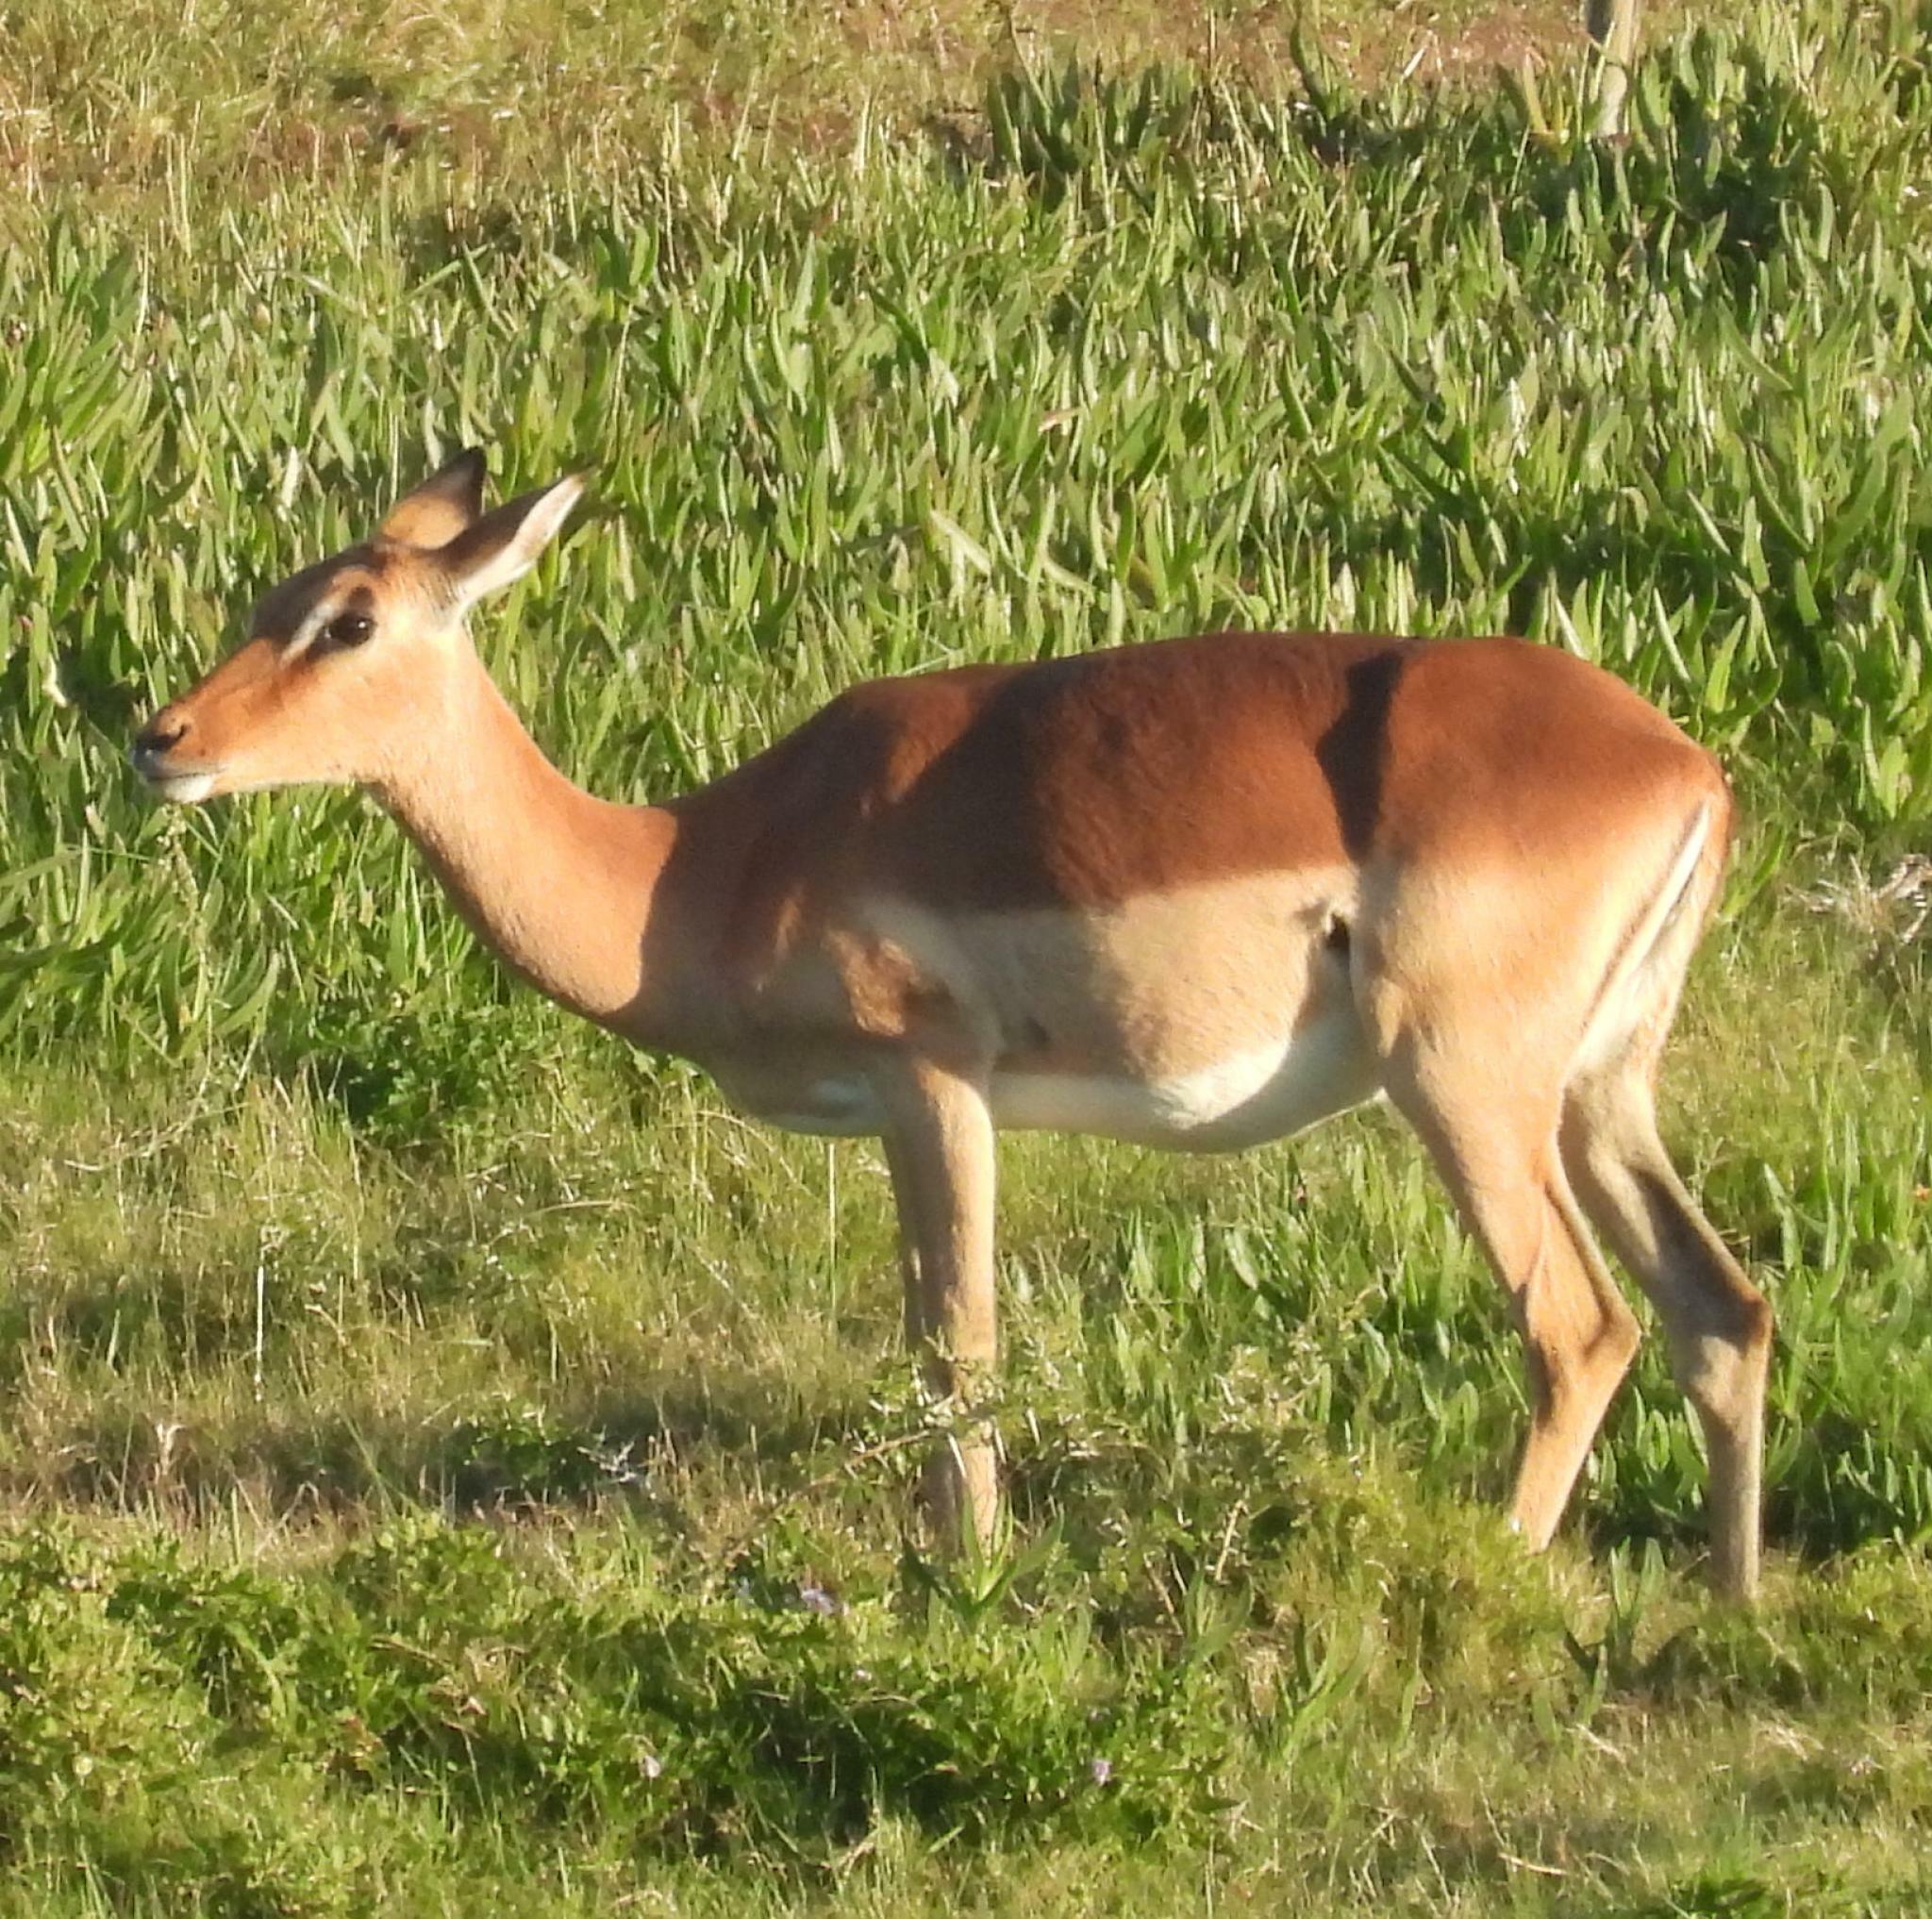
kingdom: Animalia
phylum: Chordata
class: Mammalia
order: Artiodactyla
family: Bovidae
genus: Aepyceros
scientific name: Aepyceros melampus
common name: Impala
